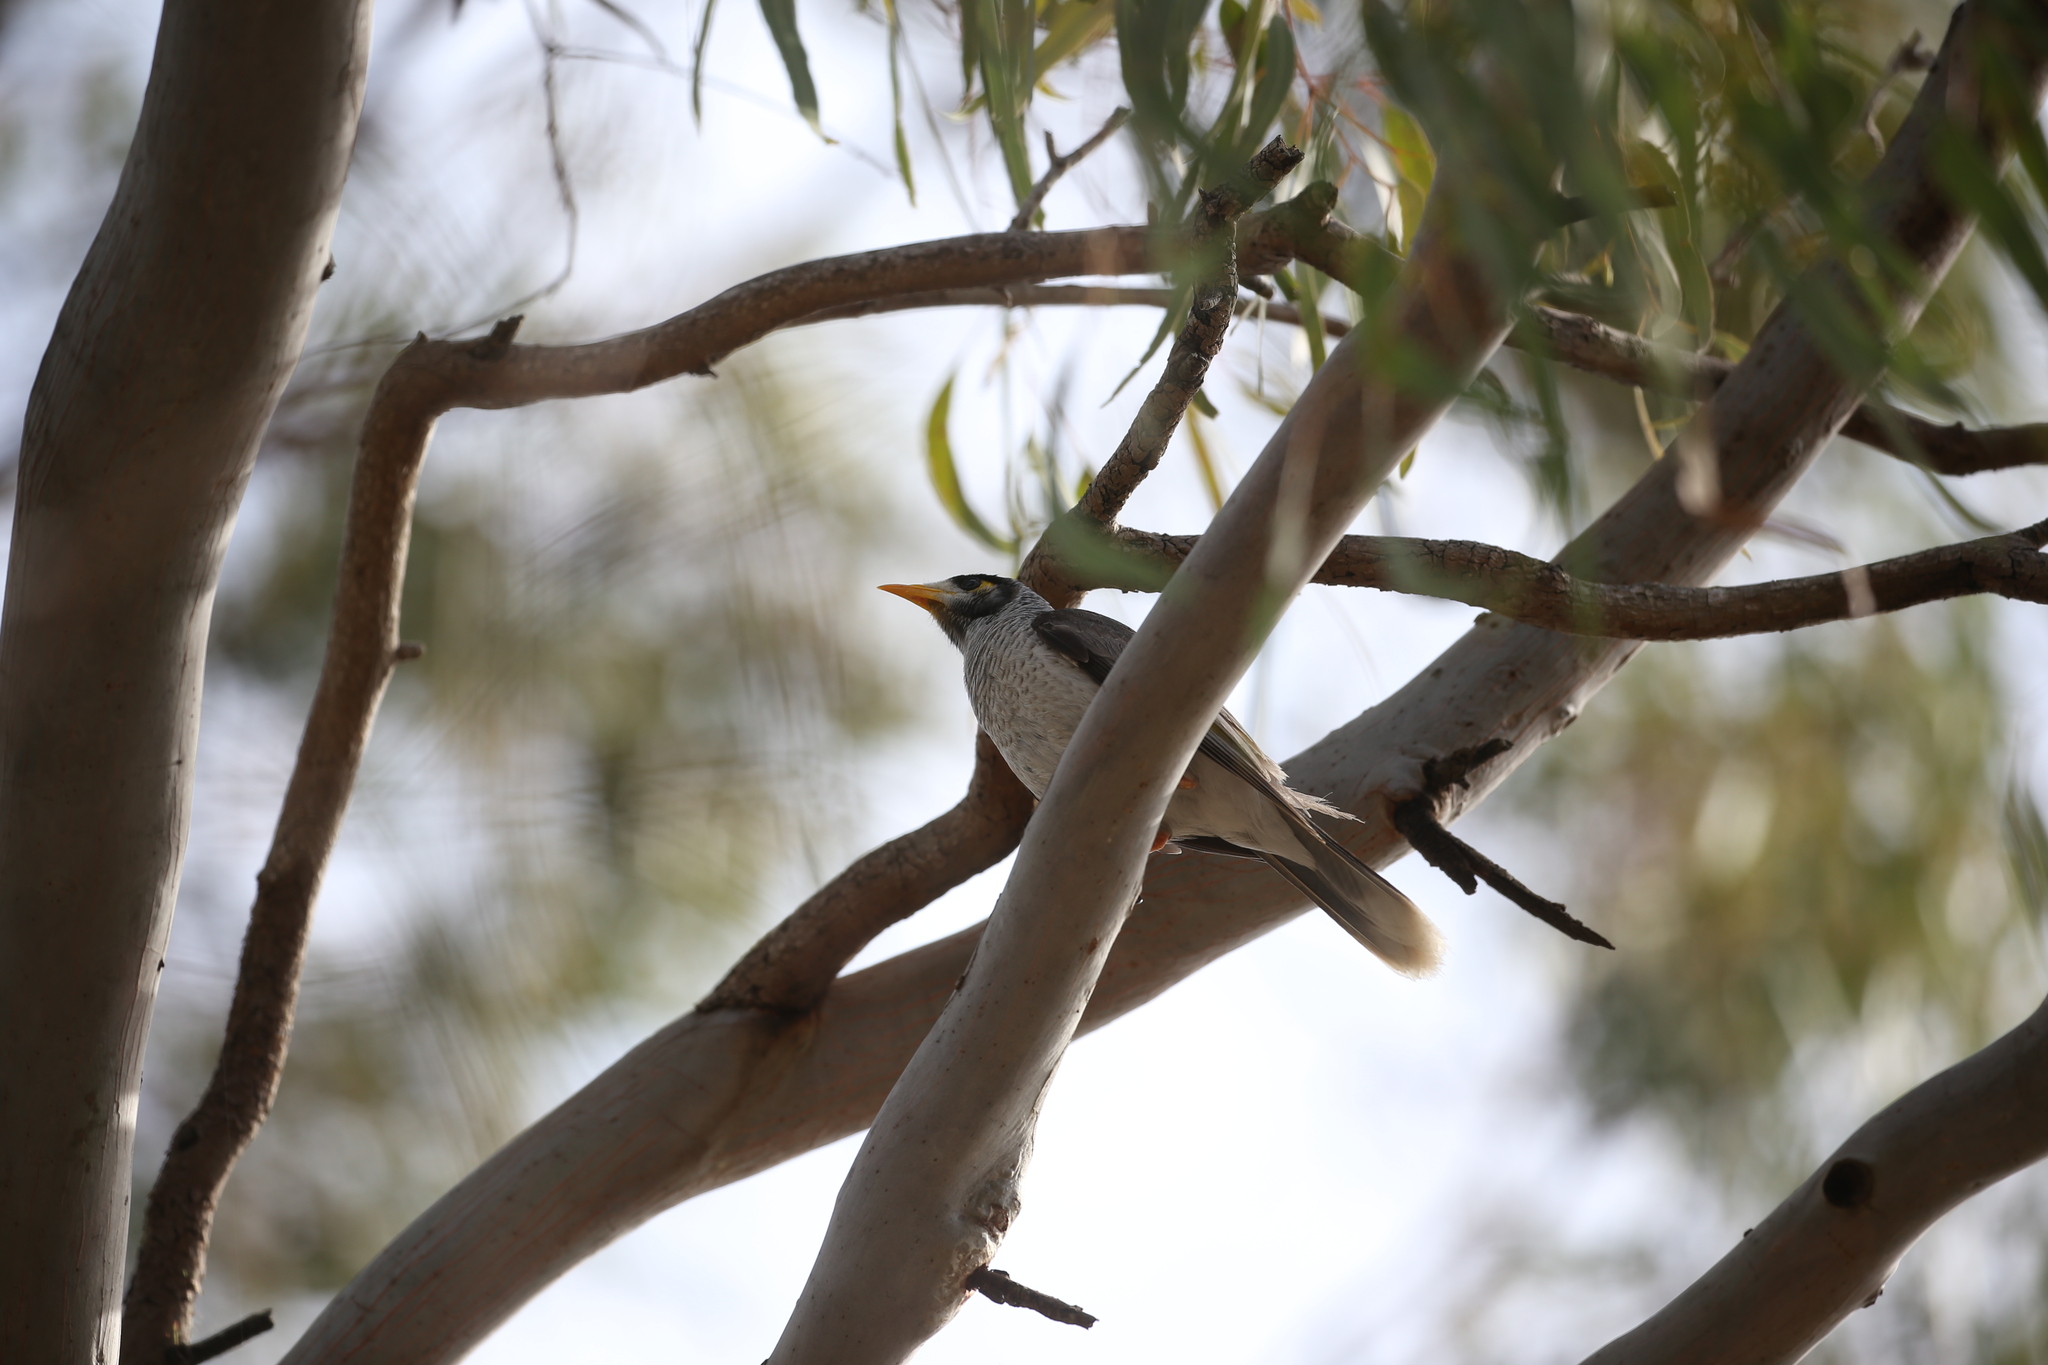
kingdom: Animalia
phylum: Chordata
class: Aves
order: Passeriformes
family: Meliphagidae
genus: Manorina
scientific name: Manorina melanocephala
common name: Noisy miner
